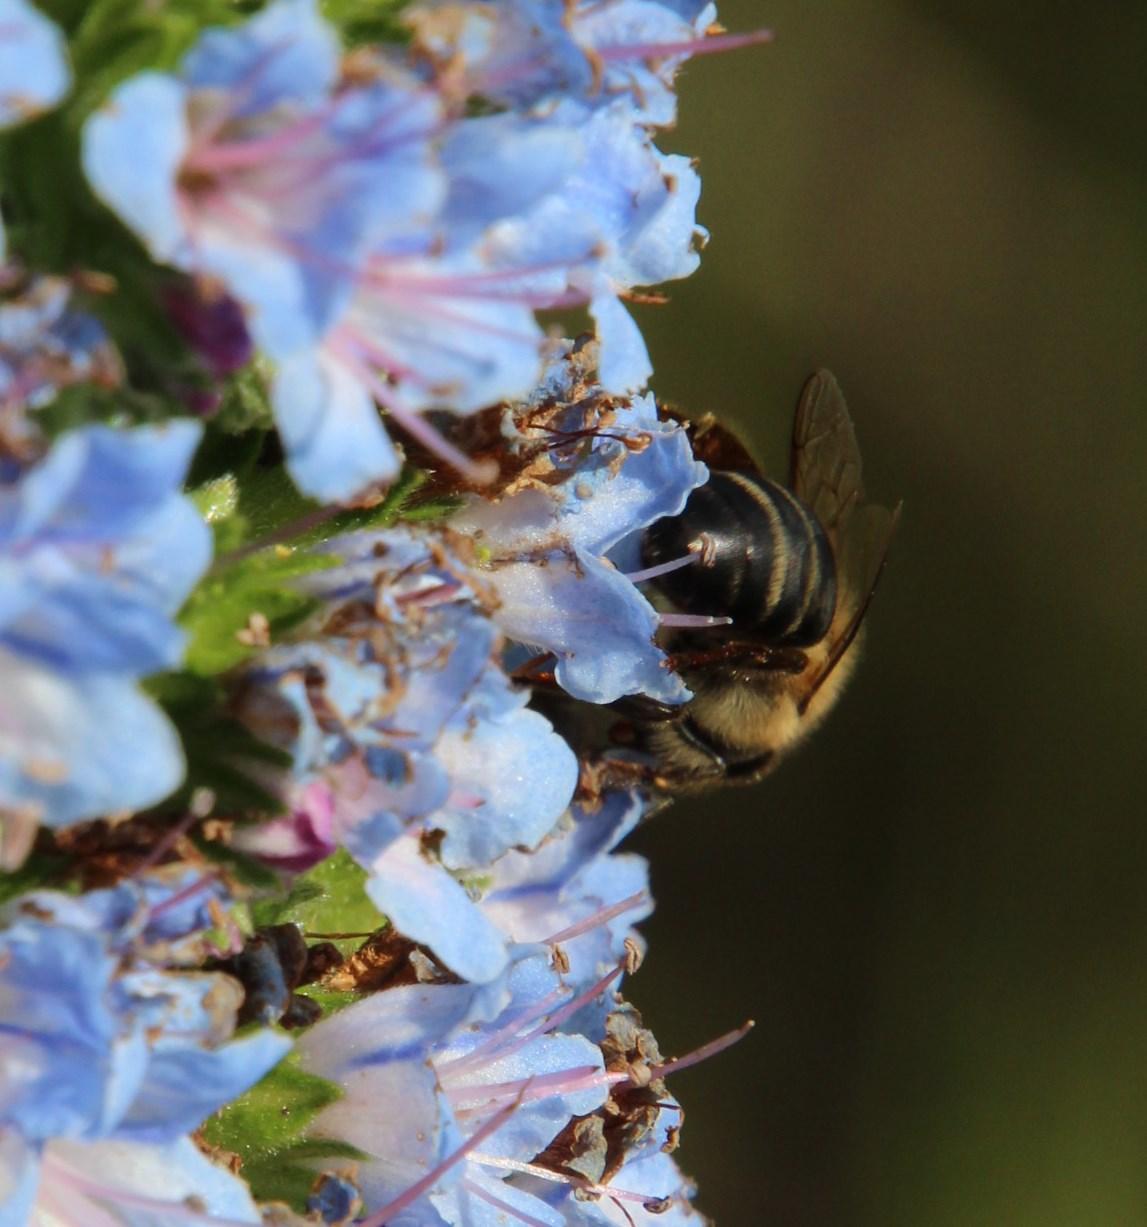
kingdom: Animalia
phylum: Arthropoda
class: Insecta
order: Hymenoptera
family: Apidae
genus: Apis
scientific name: Apis mellifera
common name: Honey bee
